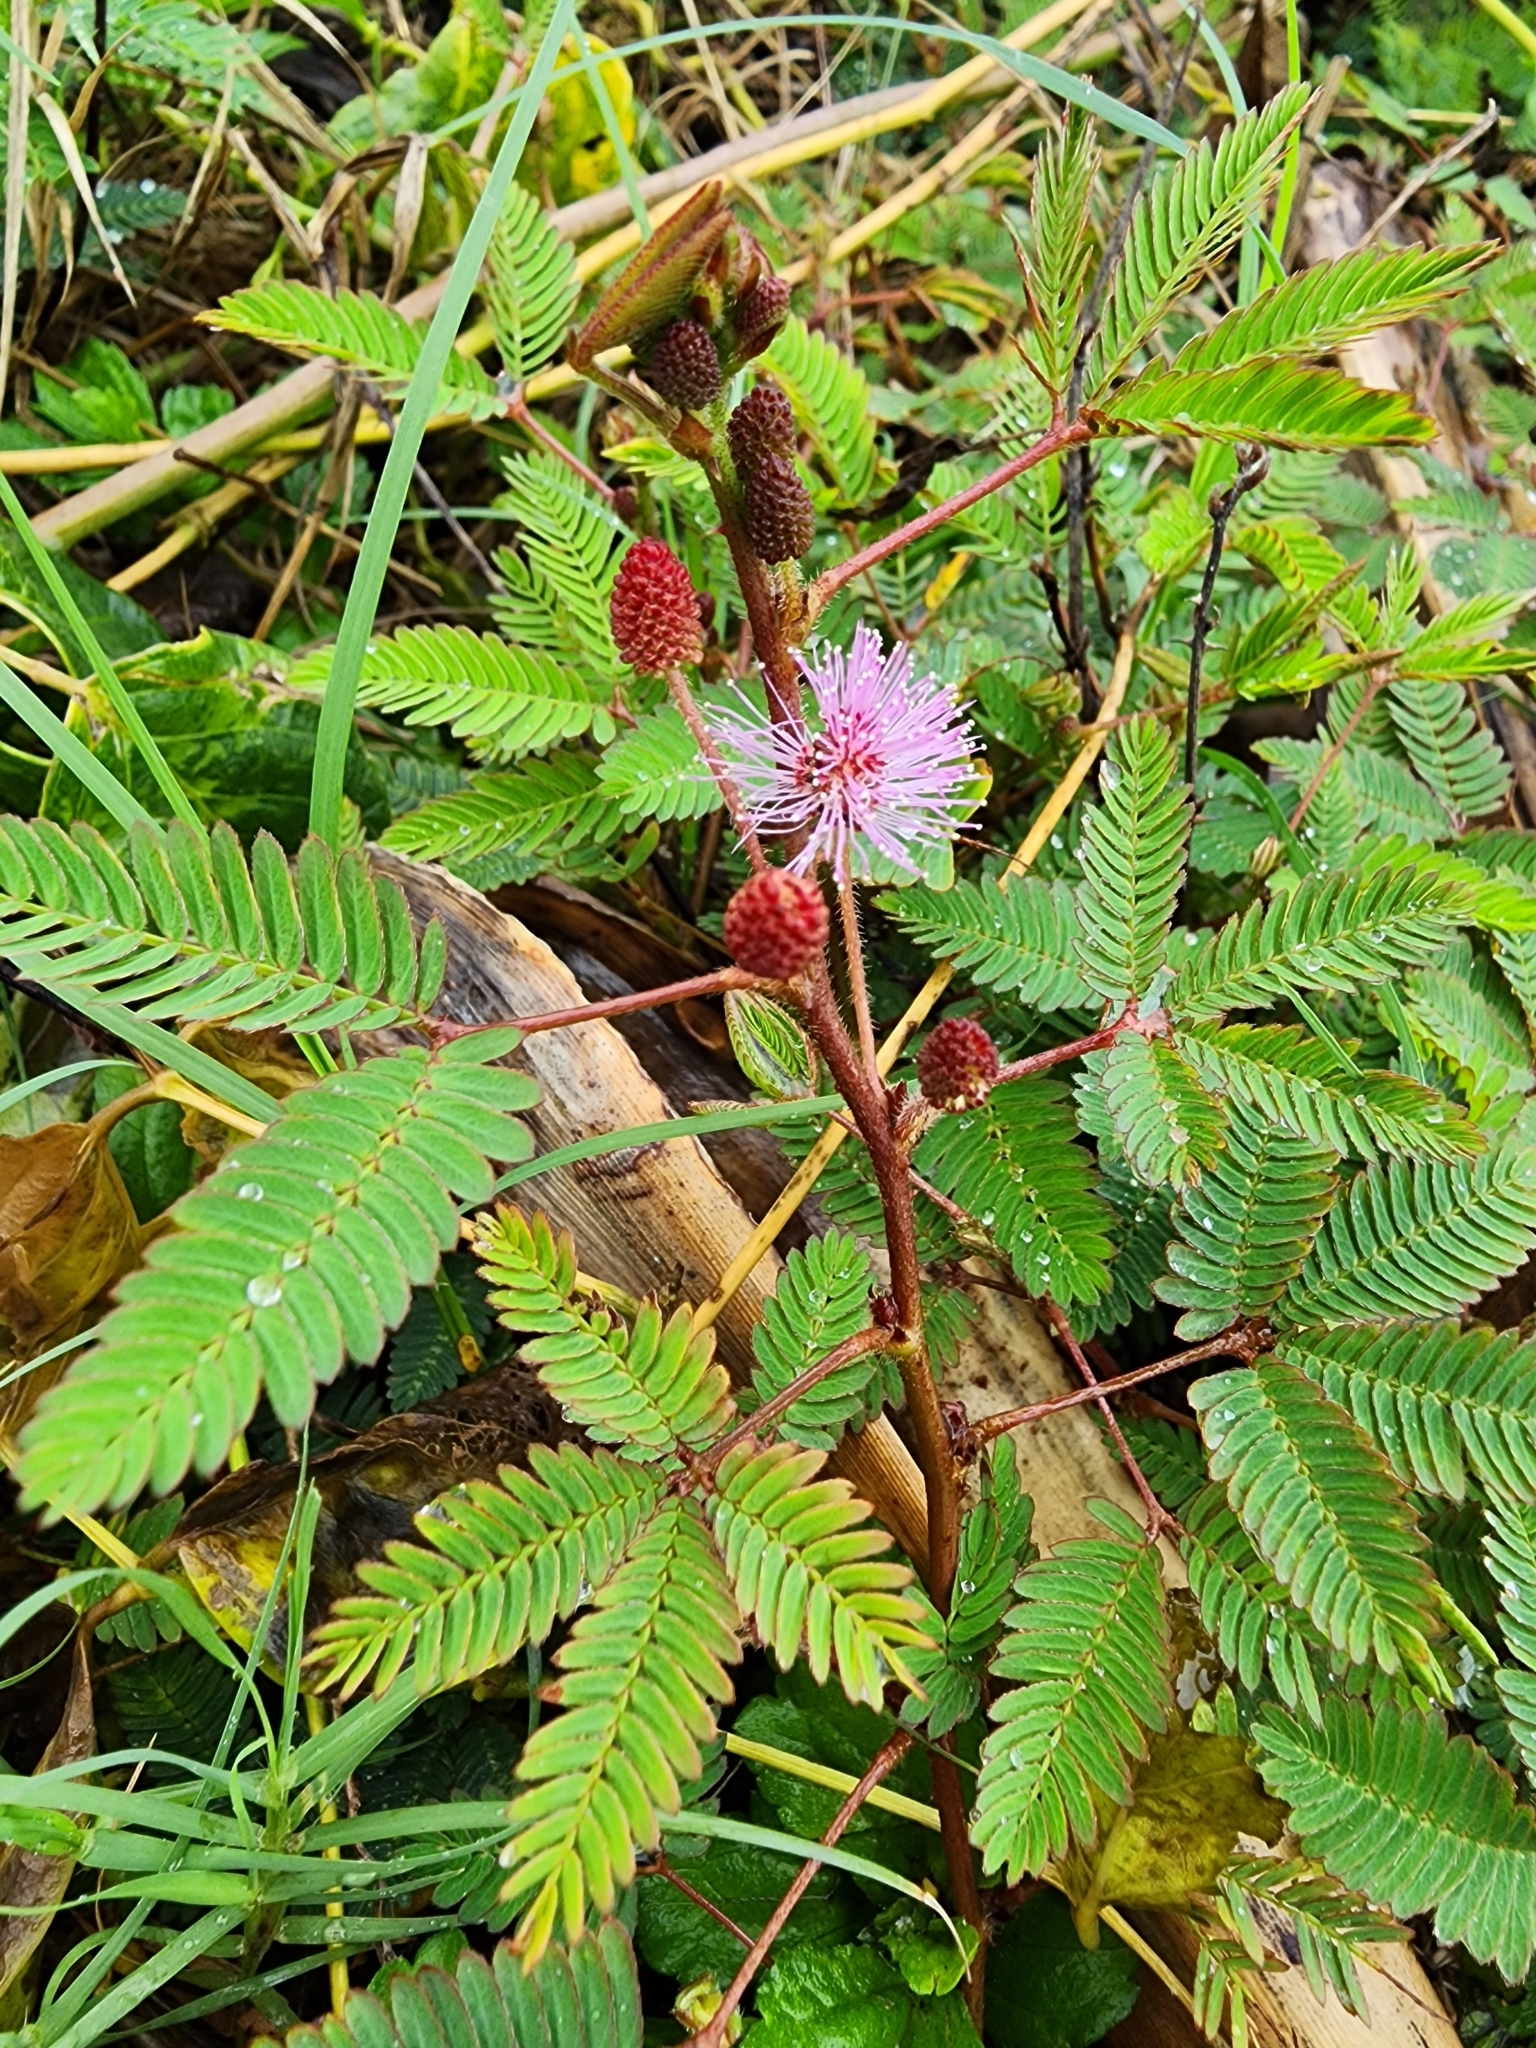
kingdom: Plantae
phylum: Tracheophyta
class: Magnoliopsida
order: Fabales
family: Fabaceae
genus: Mimosa
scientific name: Mimosa pudica
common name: Sensitive plant
